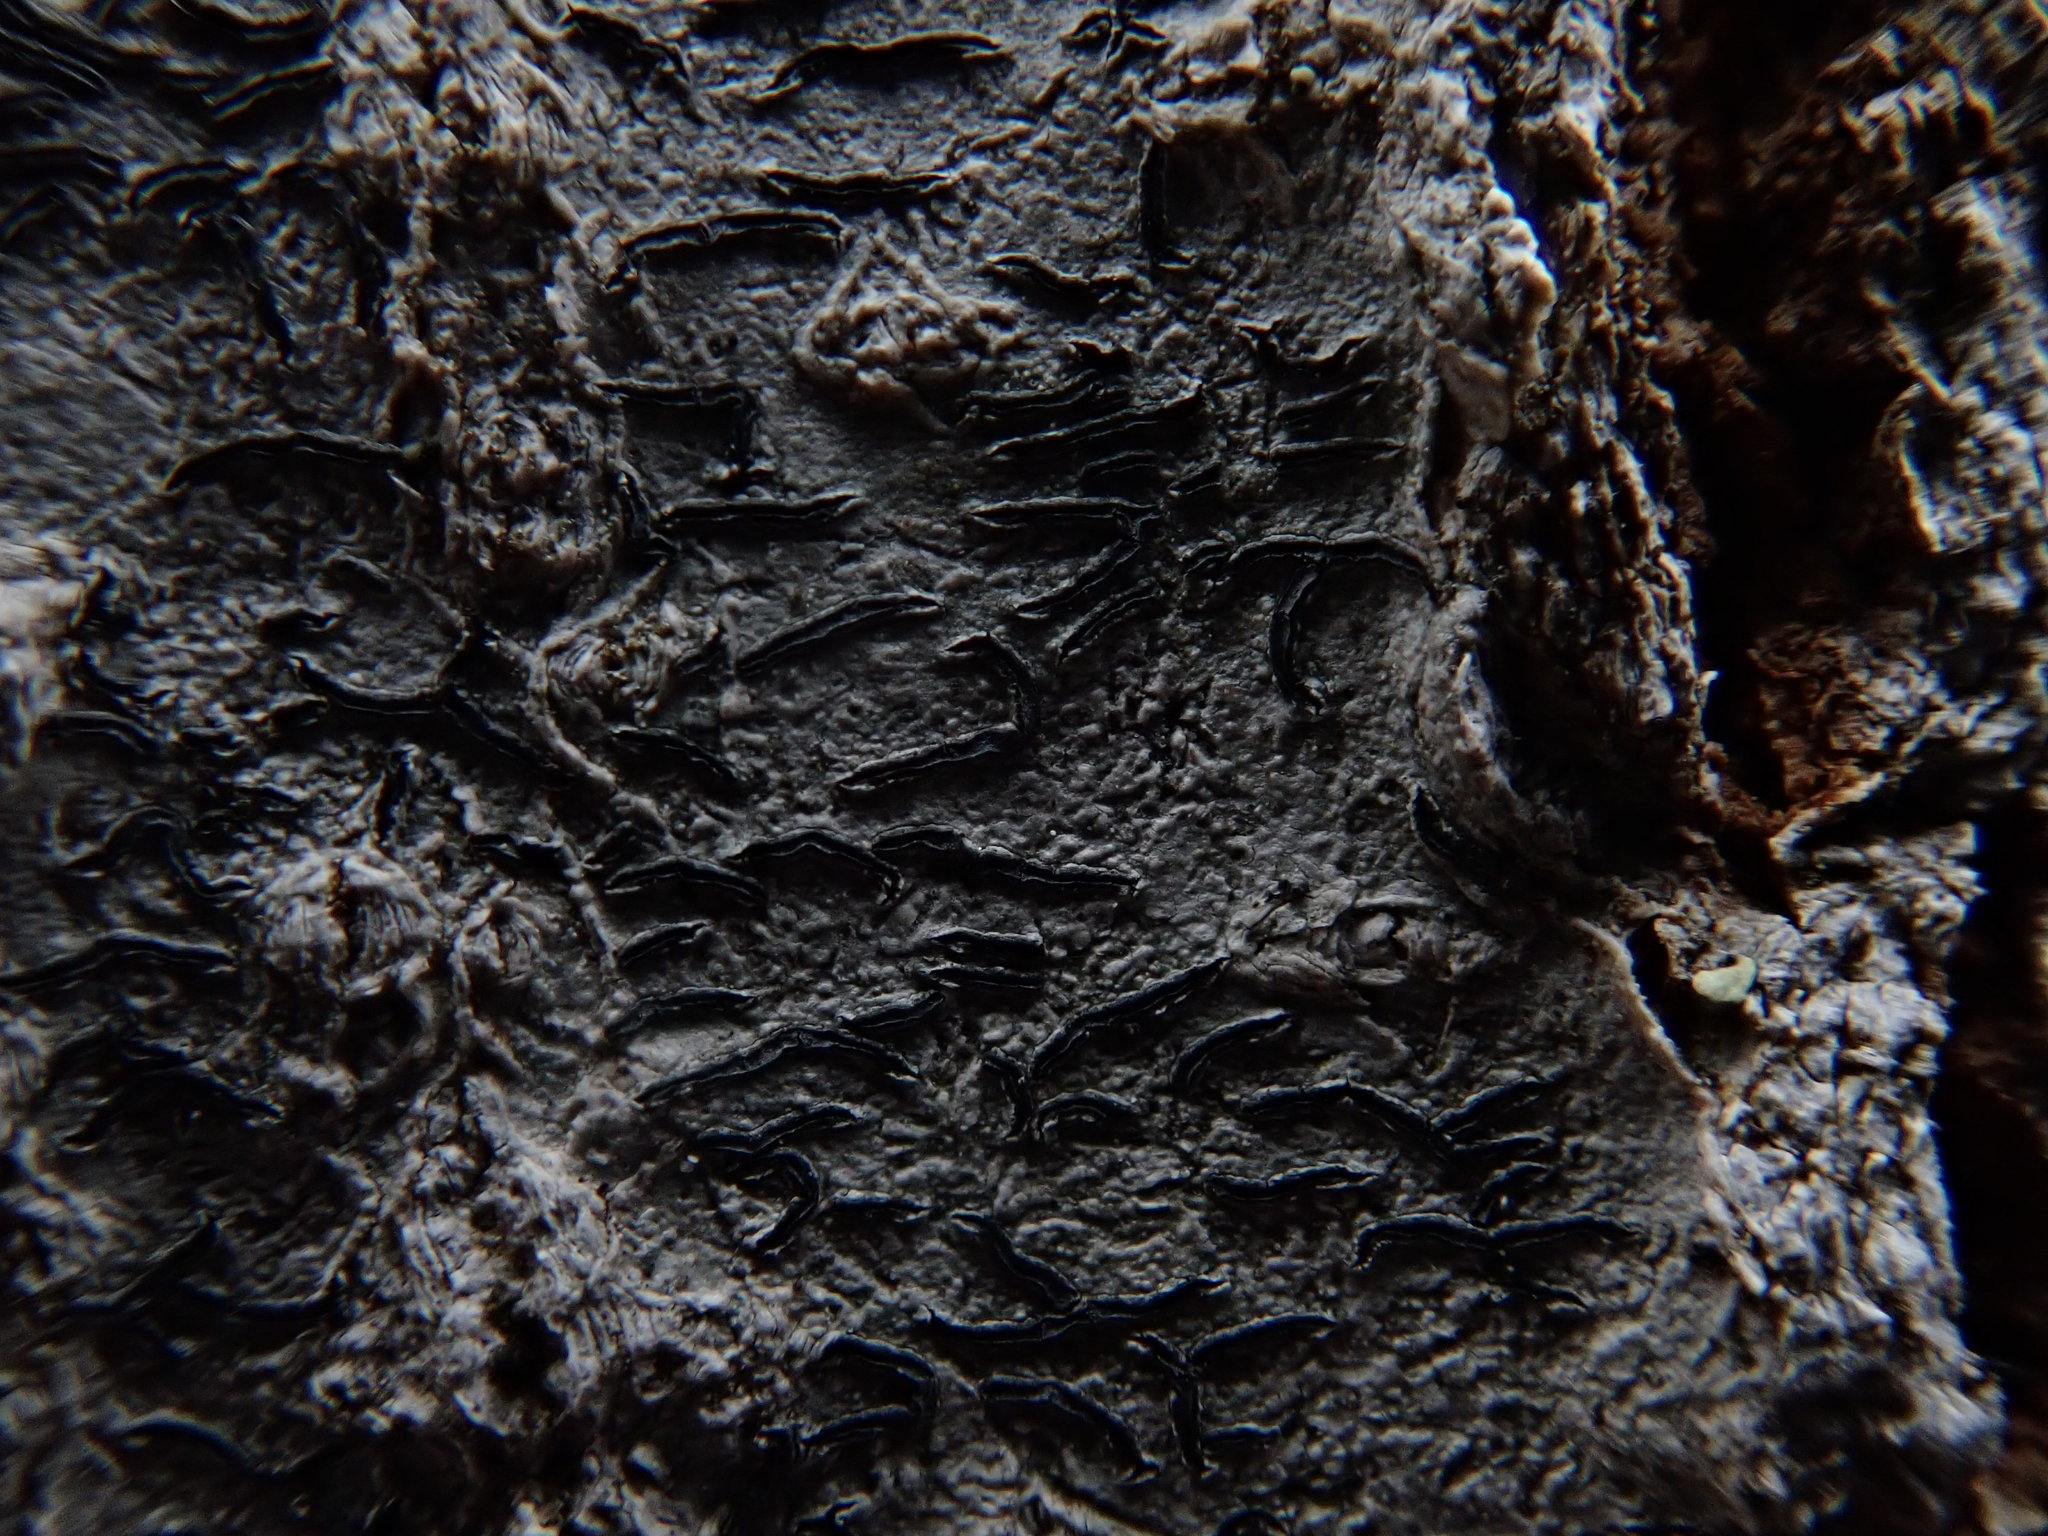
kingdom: Fungi
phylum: Ascomycota
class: Lecanoromycetes
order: Ostropales
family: Graphidaceae
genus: Graphis
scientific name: Graphis scripta
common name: Script lichen
